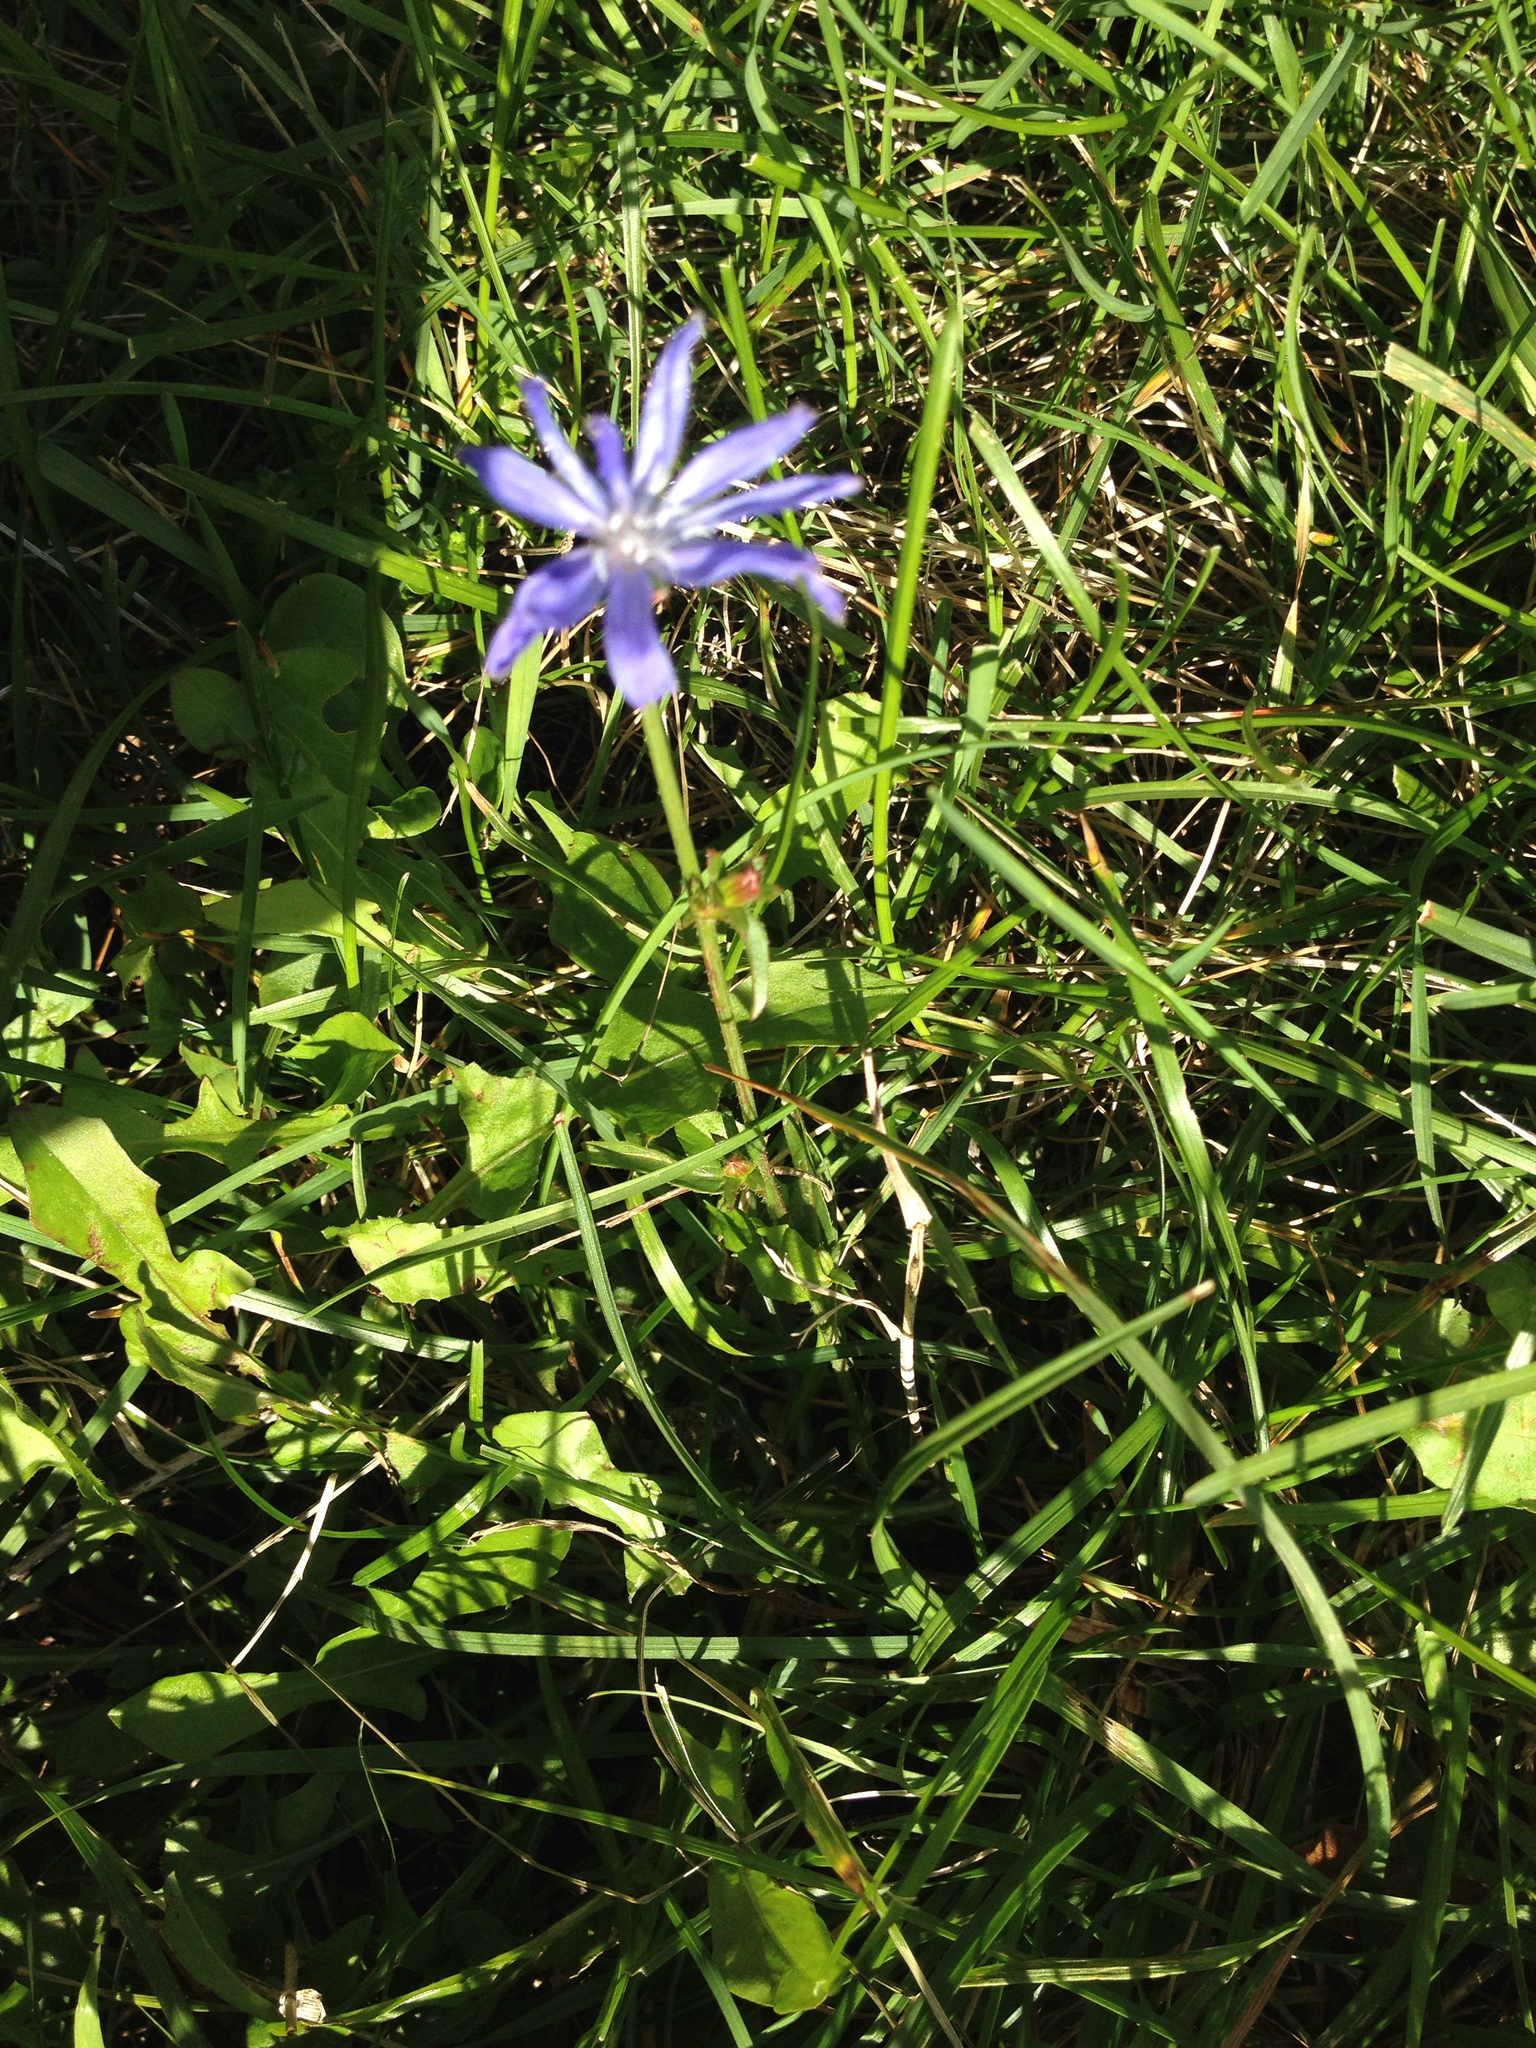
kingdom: Plantae
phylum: Tracheophyta
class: Magnoliopsida
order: Asterales
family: Asteraceae
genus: Cichorium
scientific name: Cichorium intybus
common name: Chicory
